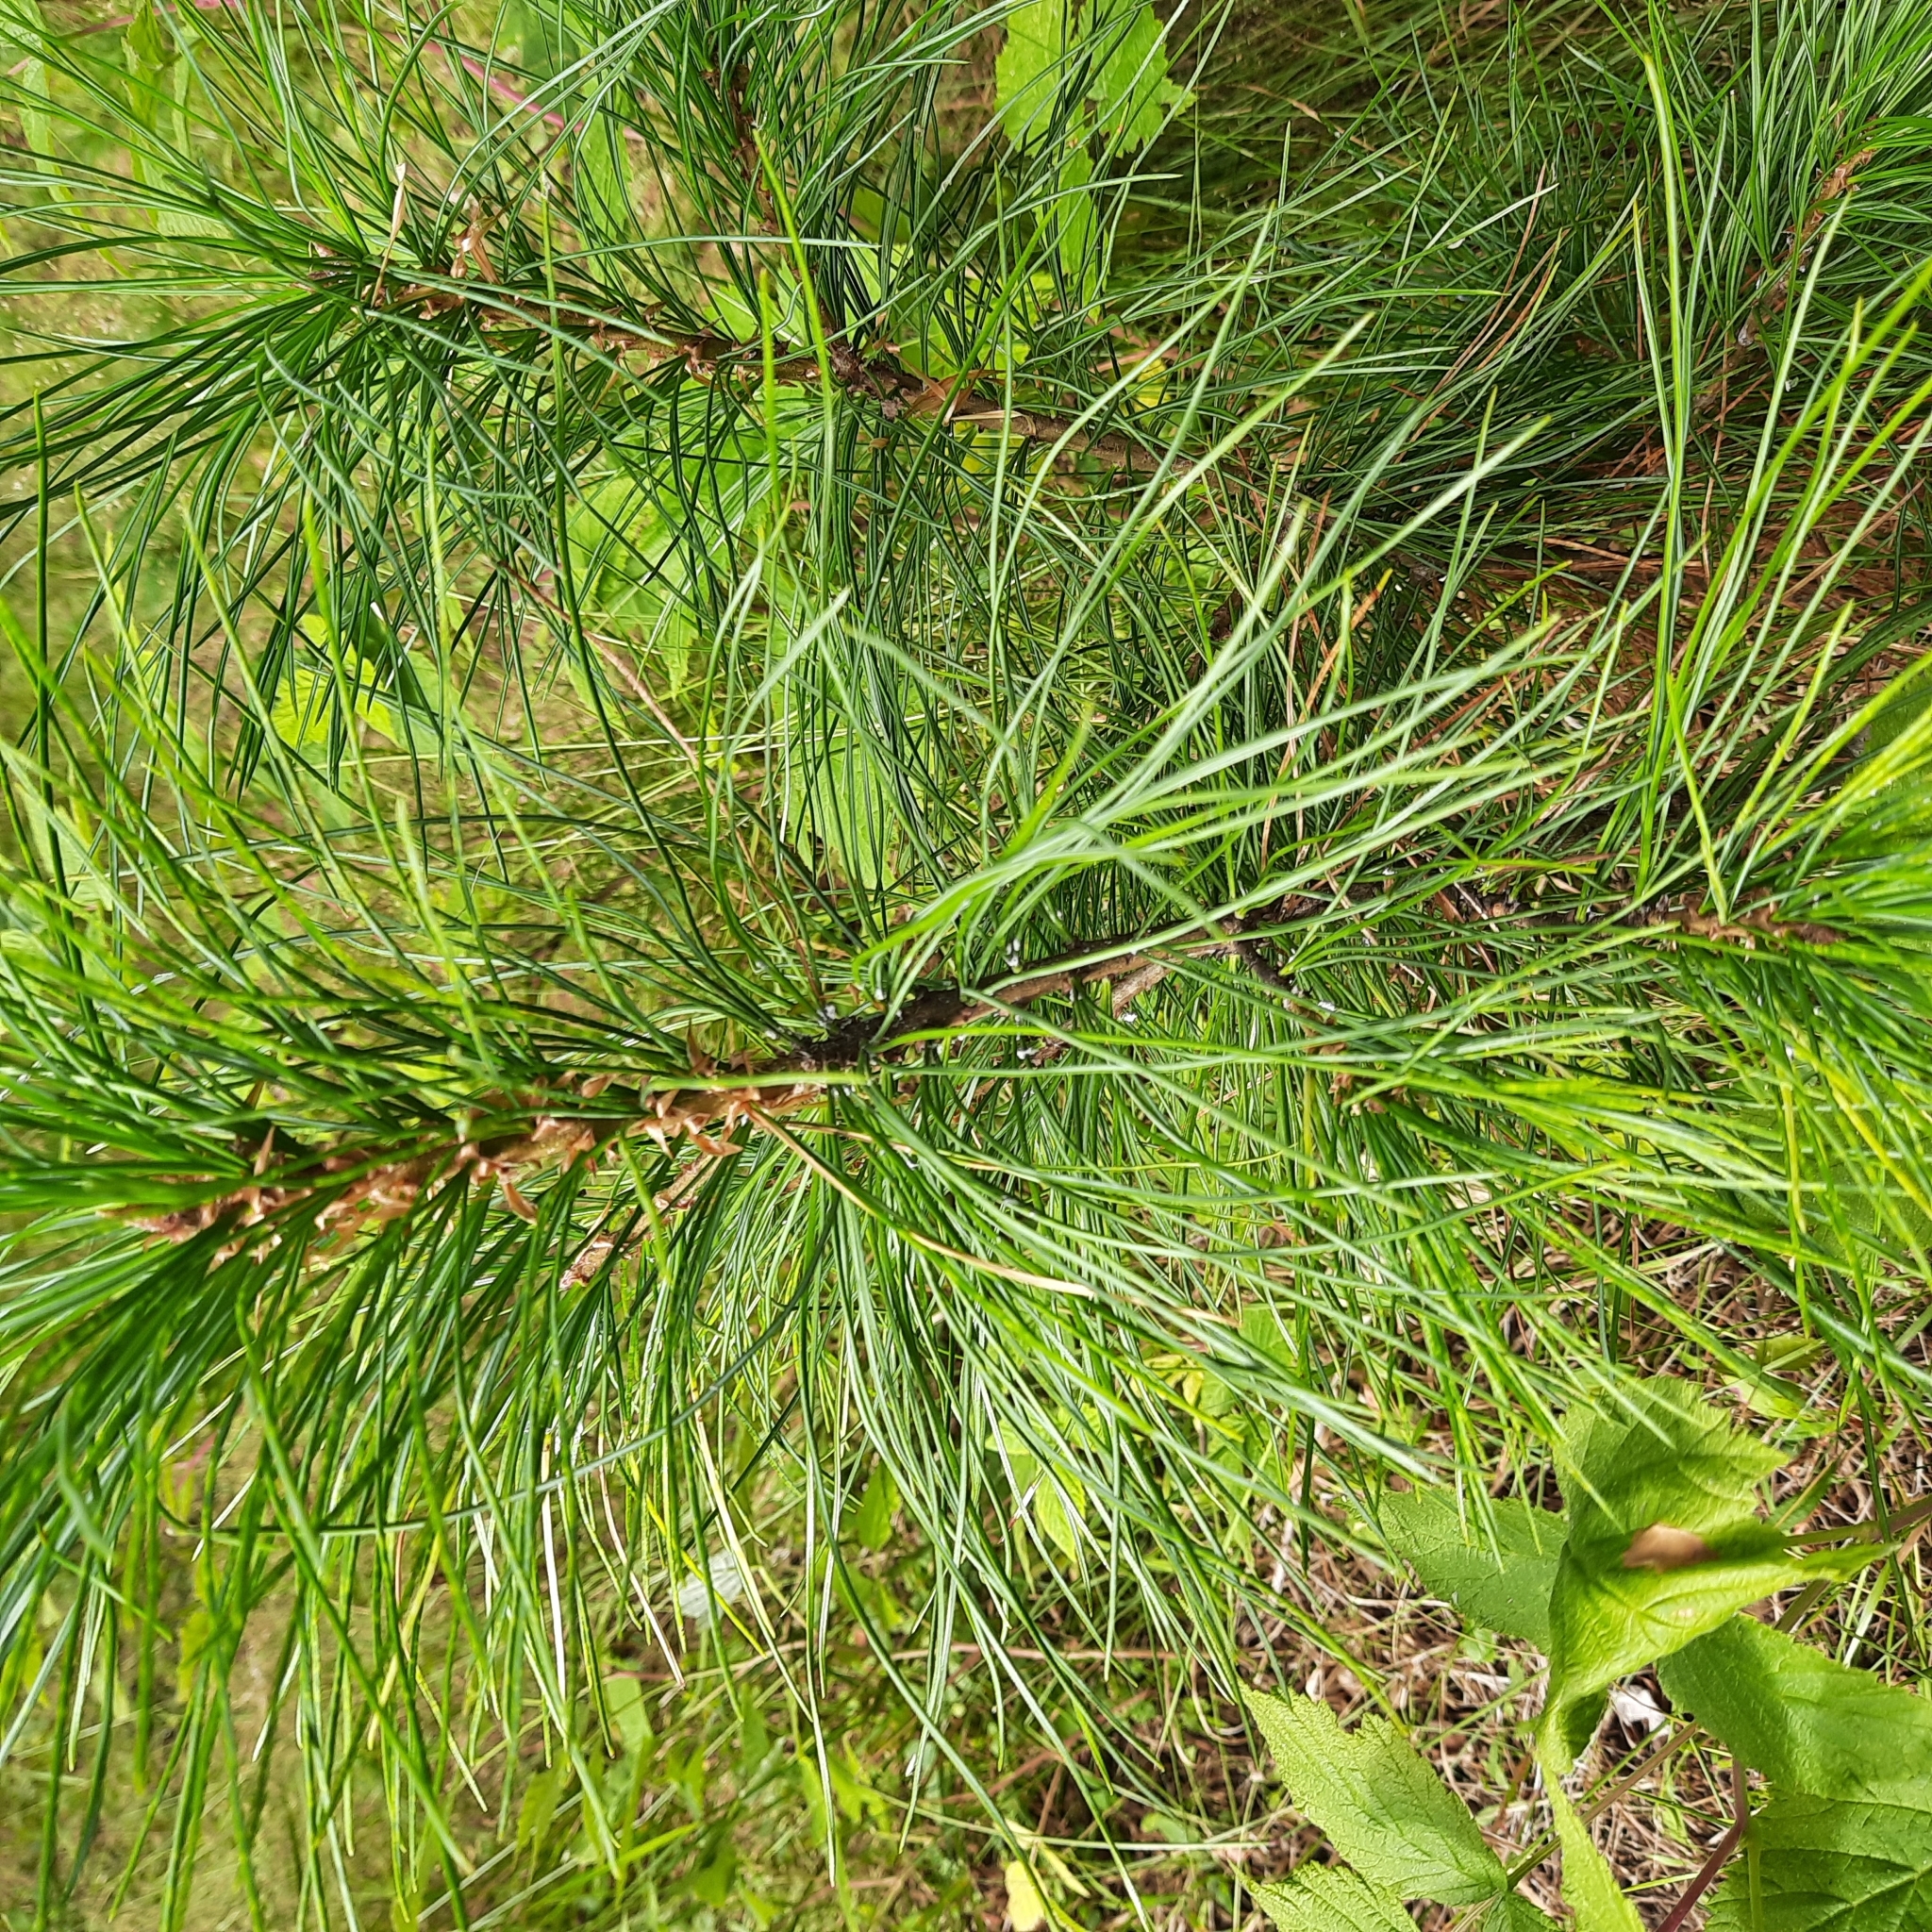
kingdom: Plantae
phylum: Tracheophyta
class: Pinopsida
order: Pinales
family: Pinaceae
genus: Pinus
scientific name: Pinus sibirica
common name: Siberian pine
